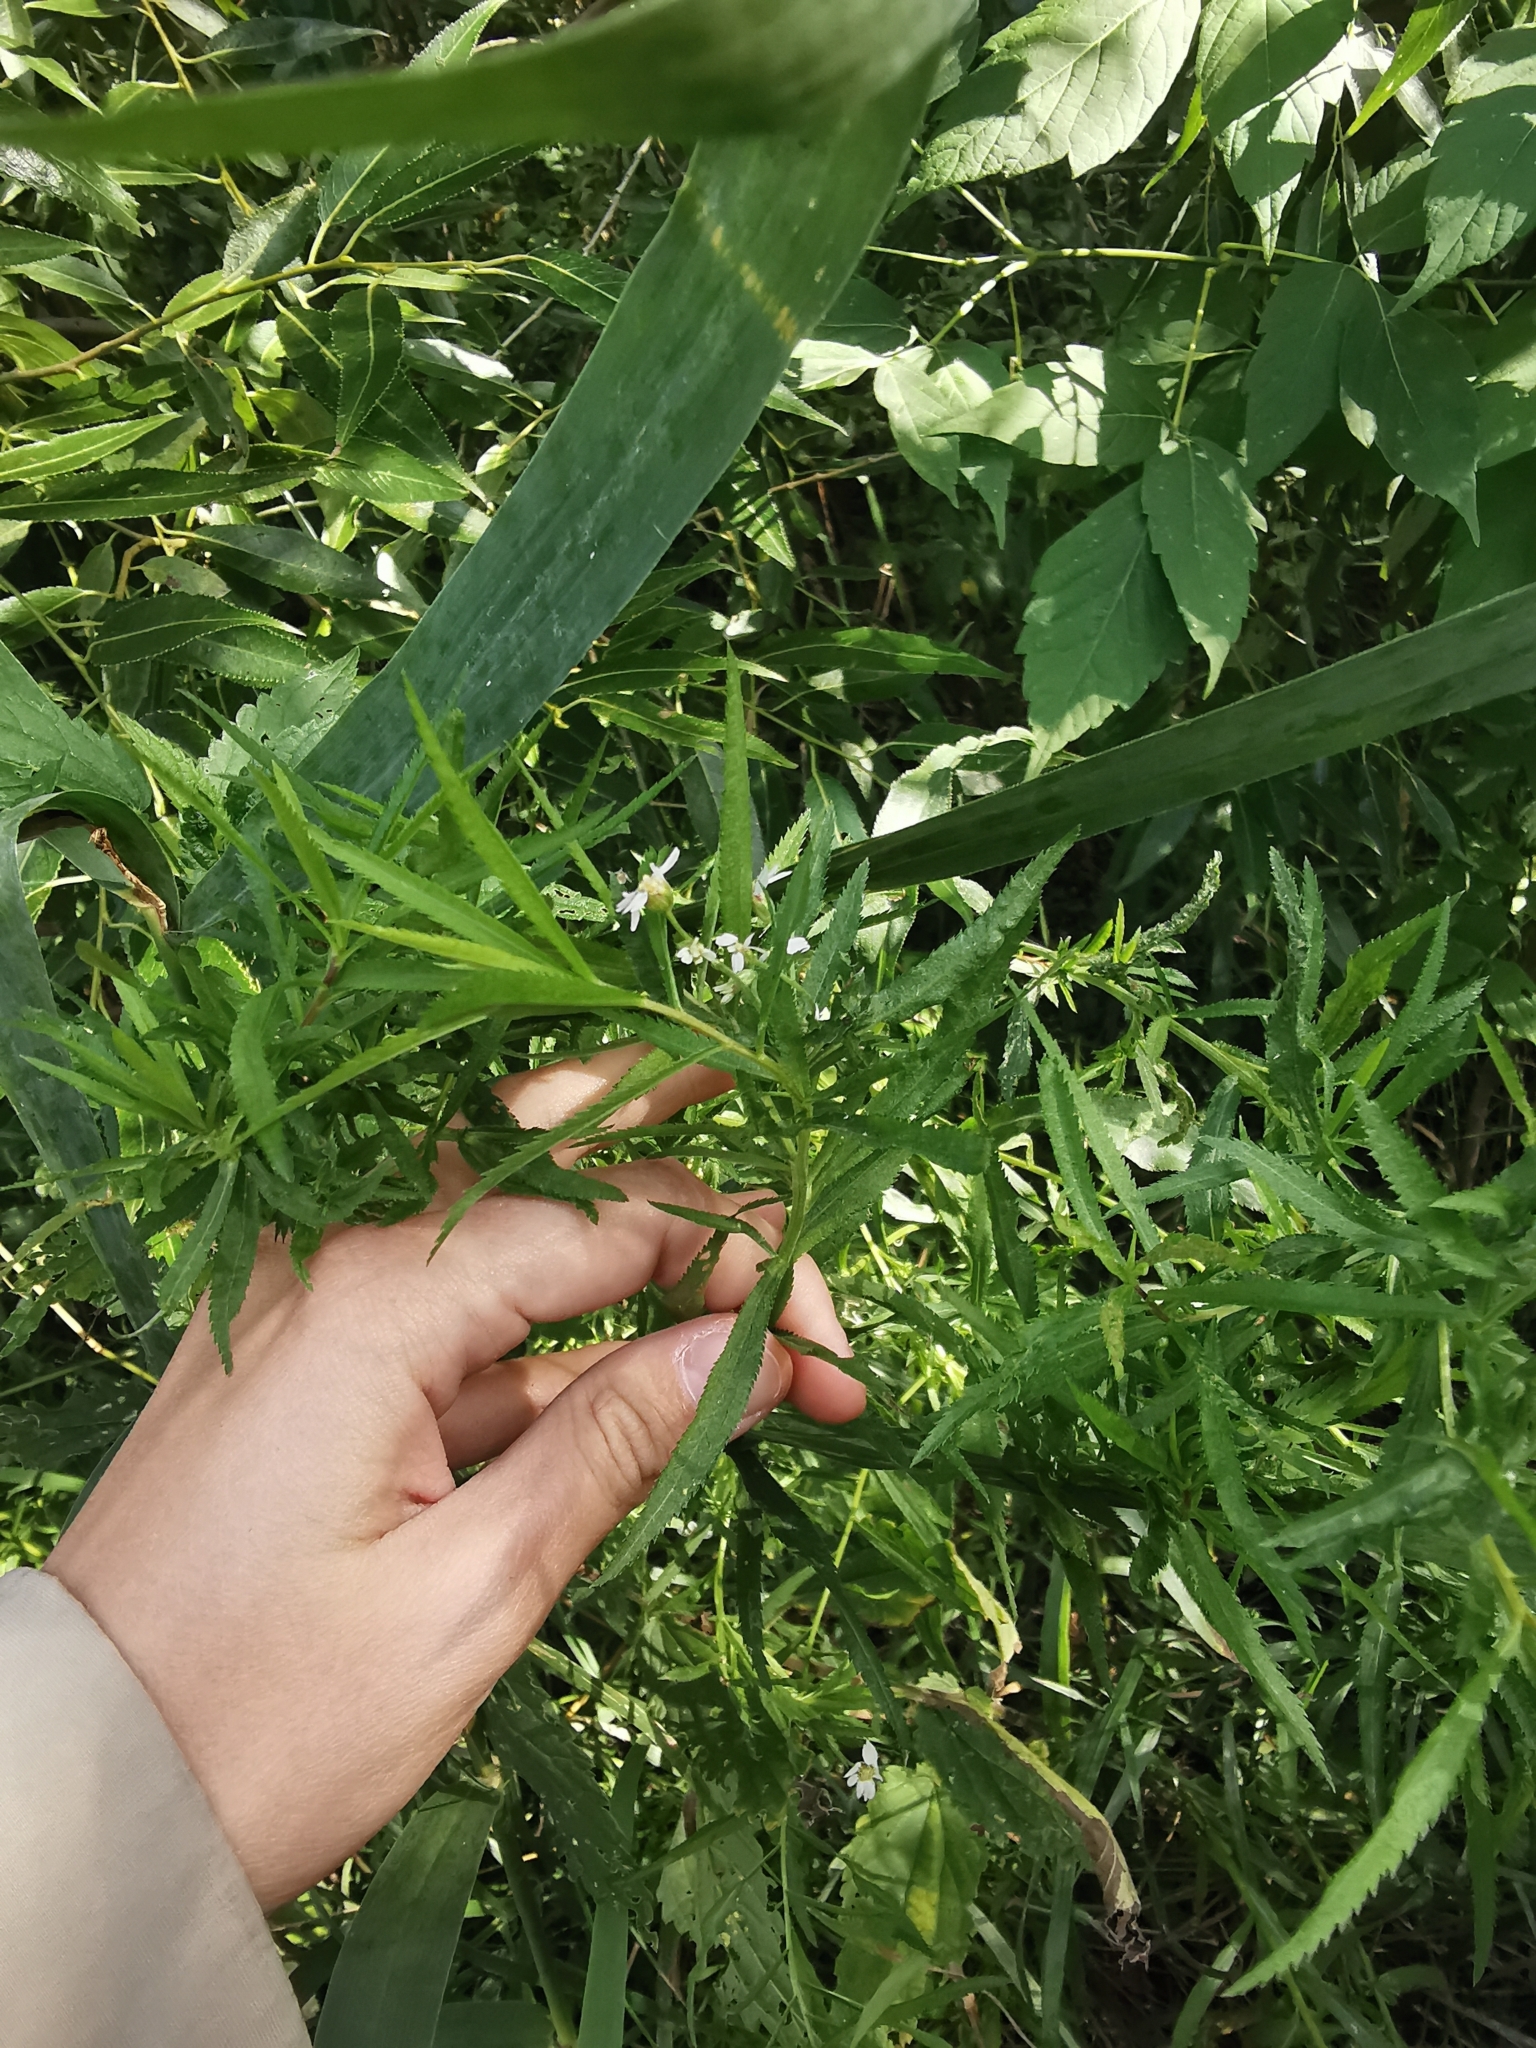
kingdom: Plantae
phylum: Tracheophyta
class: Magnoliopsida
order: Asterales
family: Asteraceae
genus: Achillea
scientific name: Achillea salicifolia
